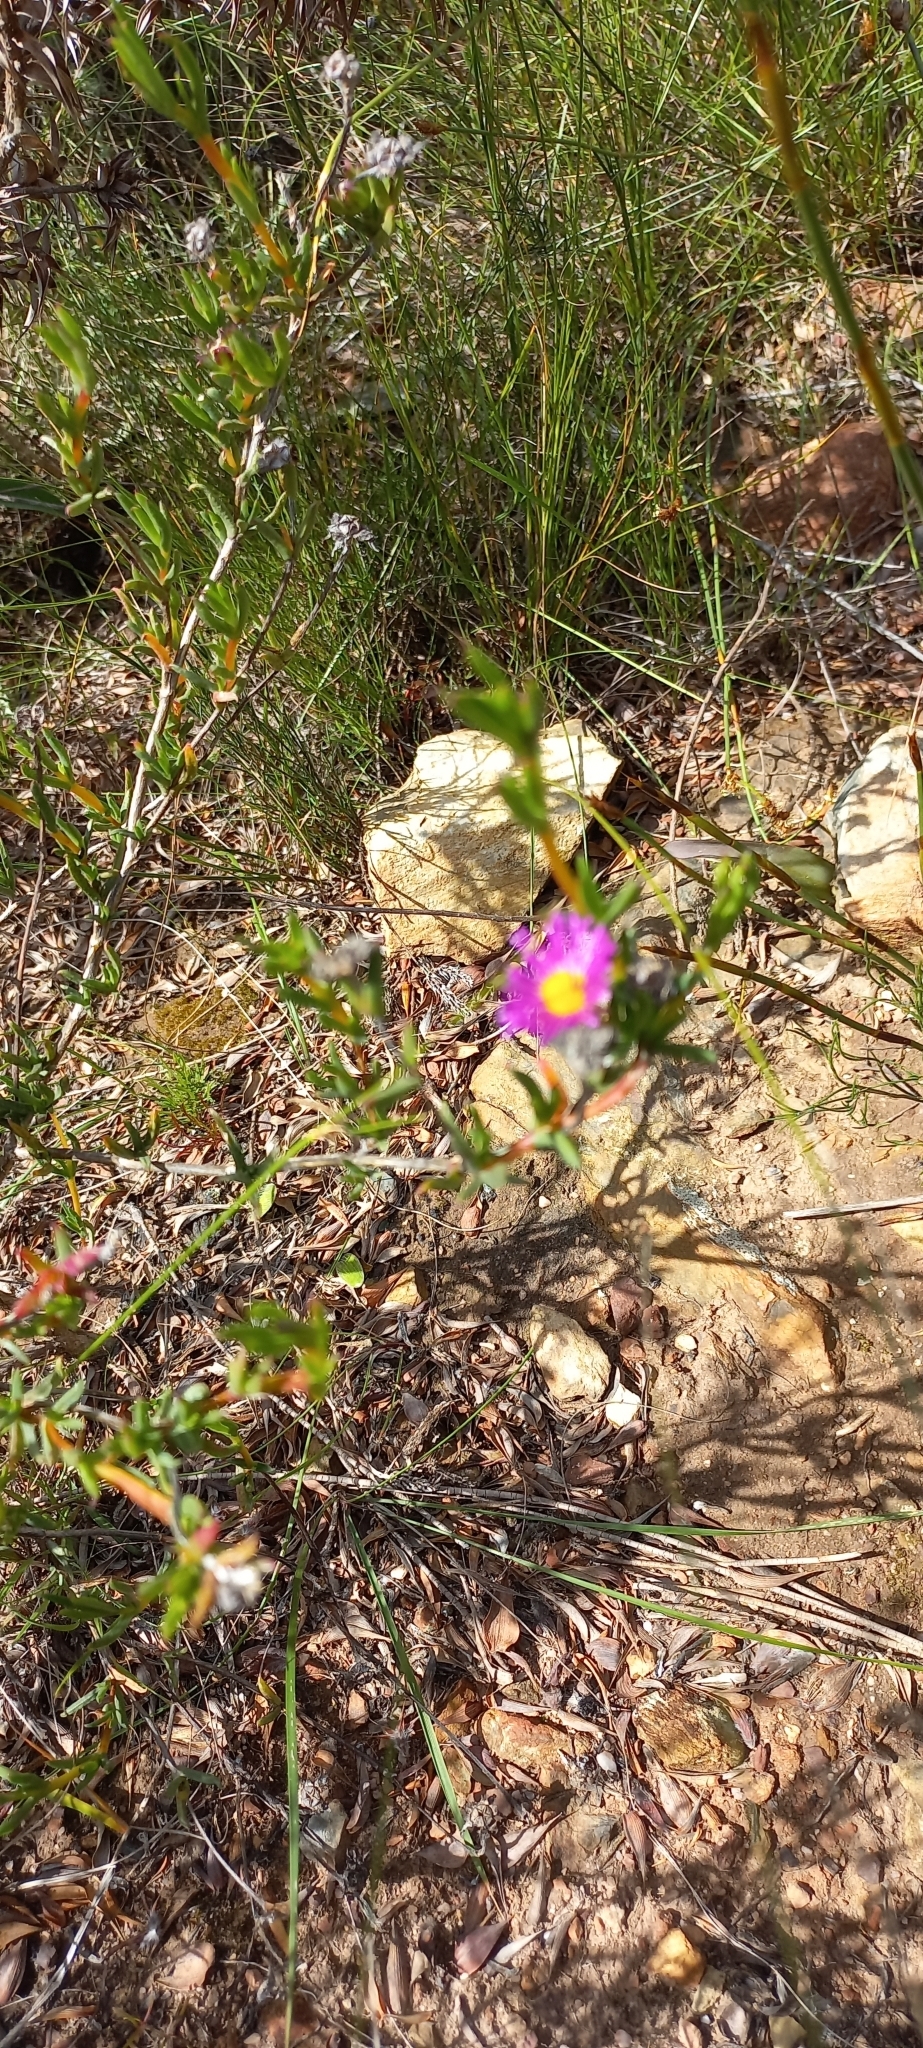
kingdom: Plantae
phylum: Tracheophyta
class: Magnoliopsida
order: Caryophyllales
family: Aizoaceae
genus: Erepsia
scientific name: Erepsia anceps
